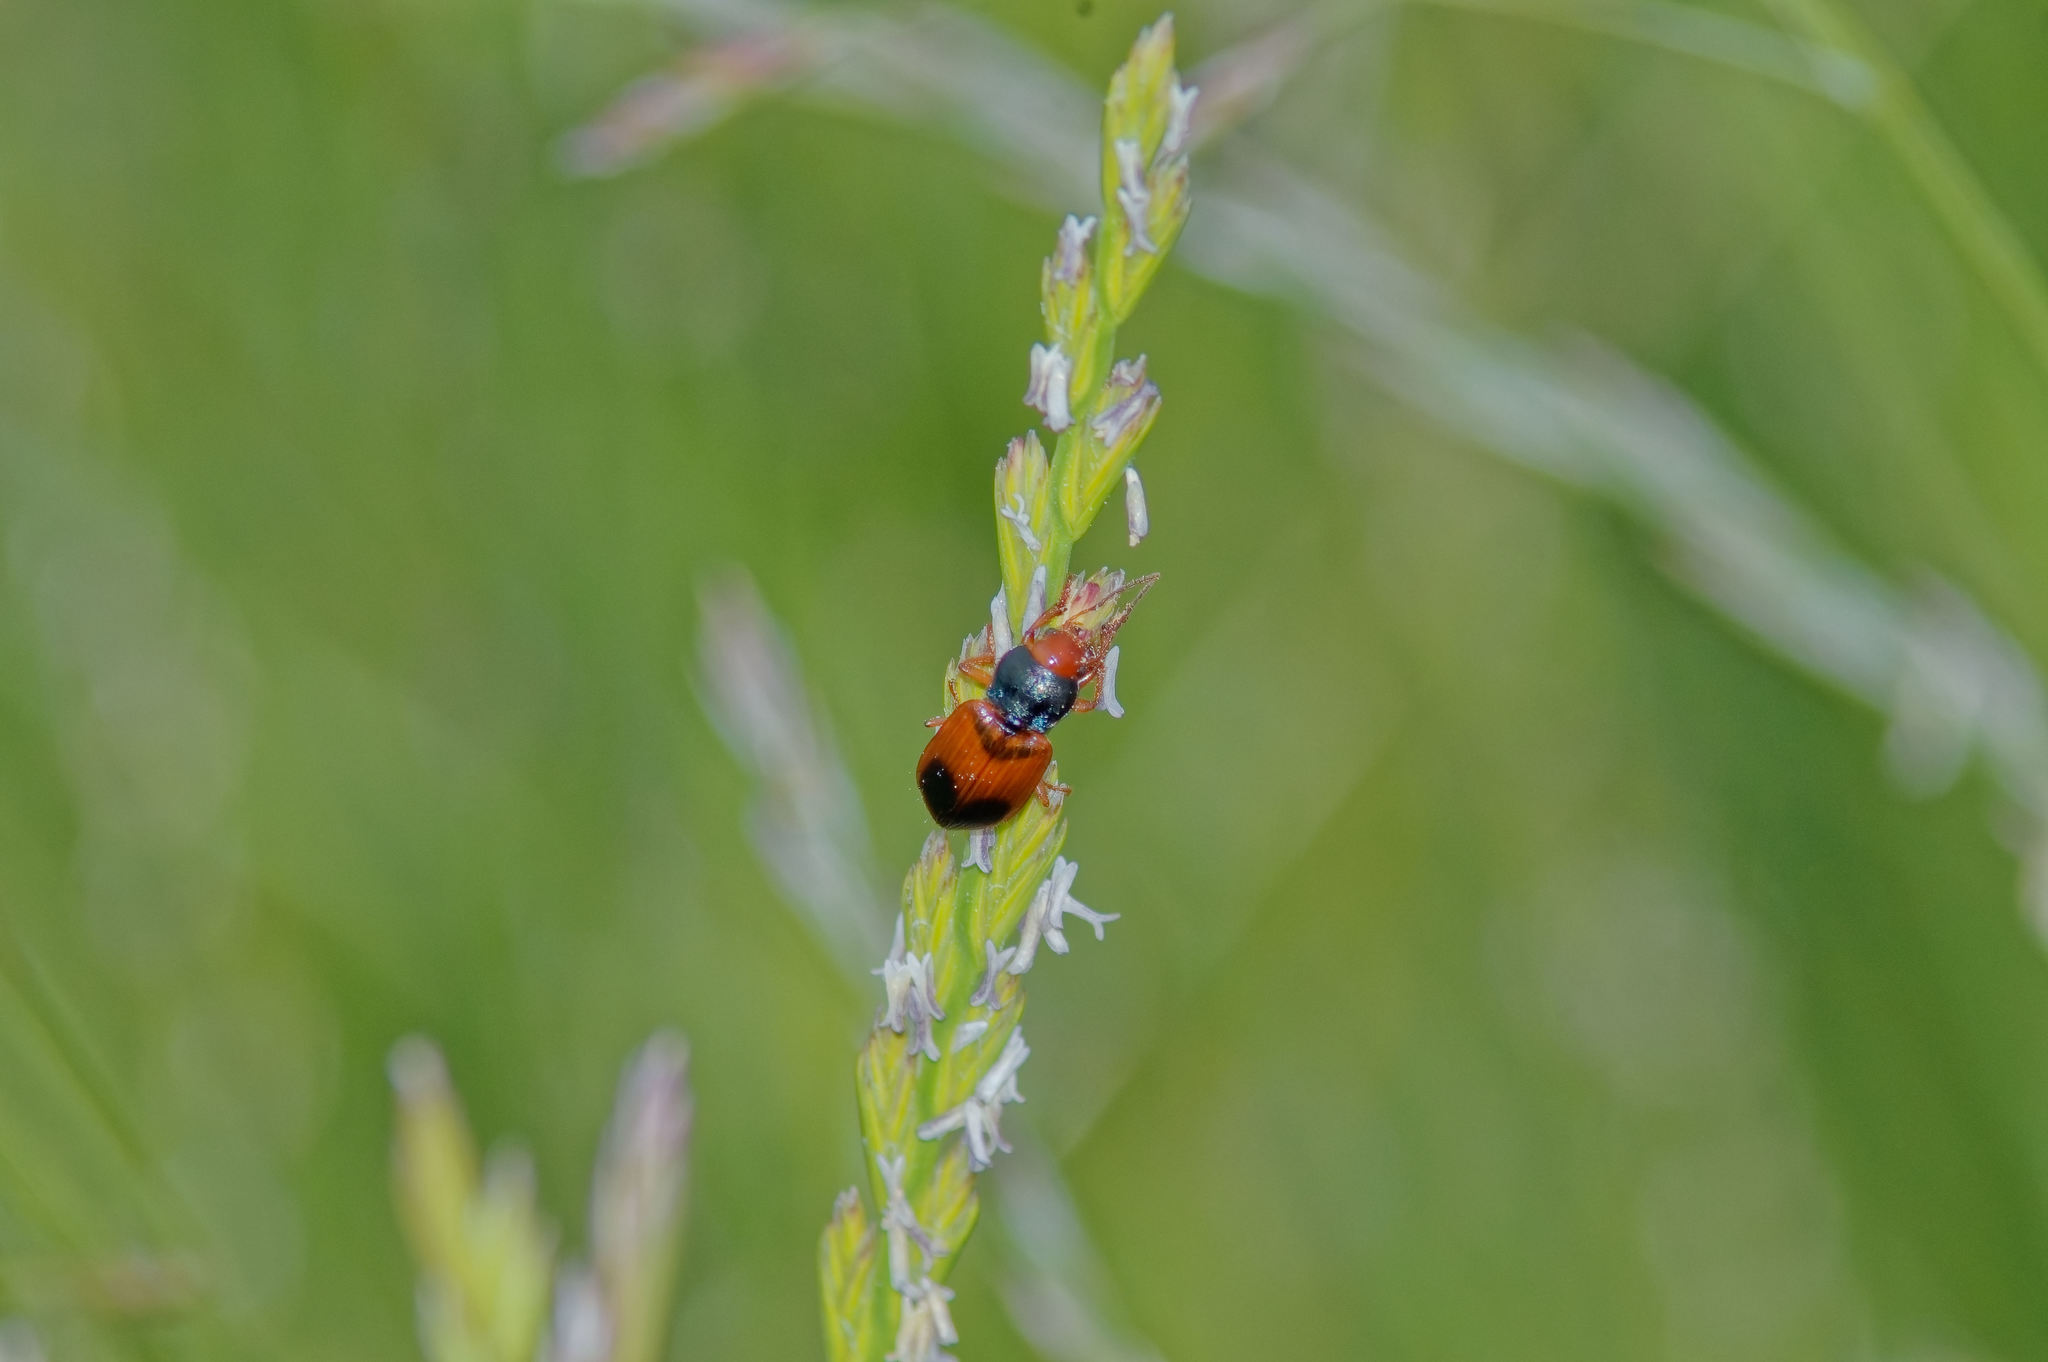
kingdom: Animalia
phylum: Arthropoda
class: Insecta
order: Coleoptera
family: Carabidae
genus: Diachromus
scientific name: Diachromus germanus
